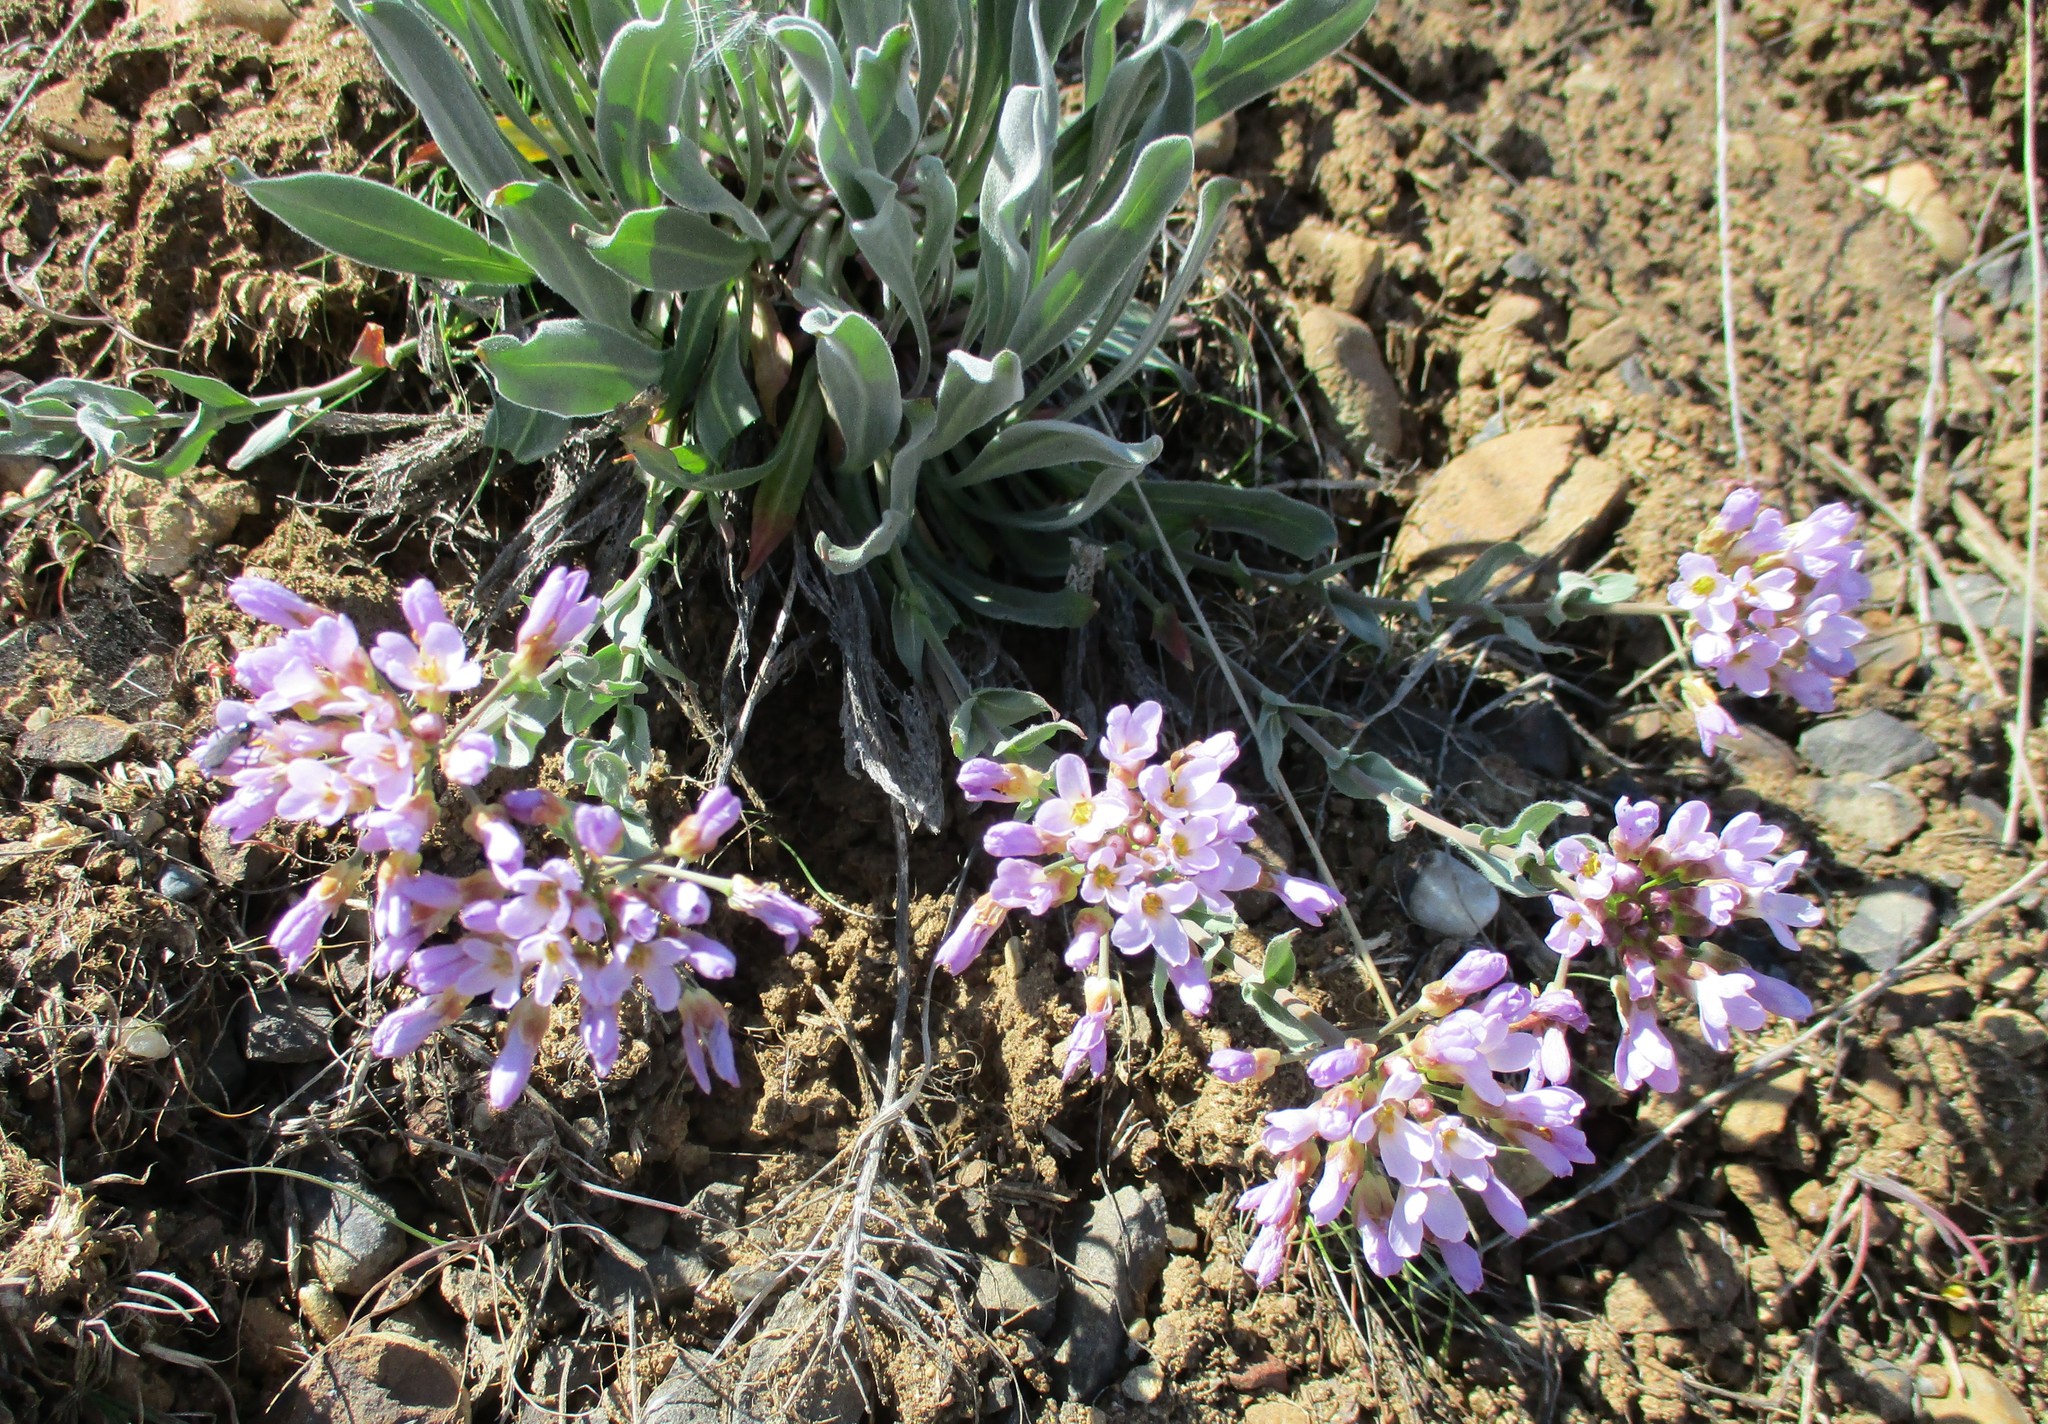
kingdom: Plantae
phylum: Tracheophyta
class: Magnoliopsida
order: Brassicales
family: Brassicaceae
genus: Phoenicaulis
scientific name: Phoenicaulis cheiranthoides
